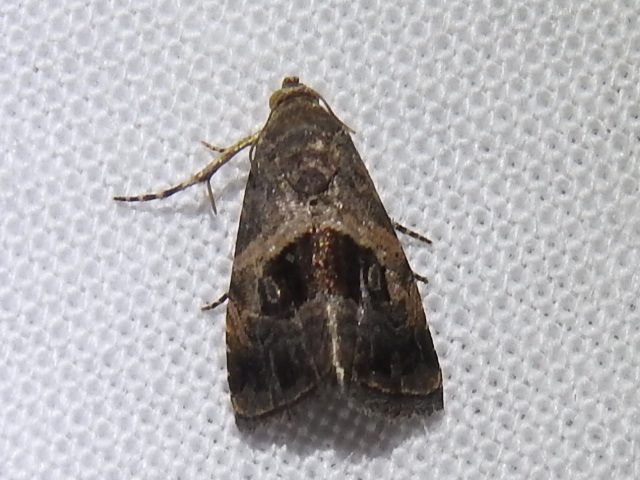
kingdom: Animalia
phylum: Arthropoda
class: Insecta
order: Lepidoptera
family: Noctuidae
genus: Tripudia
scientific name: Tripudia quadrifera
